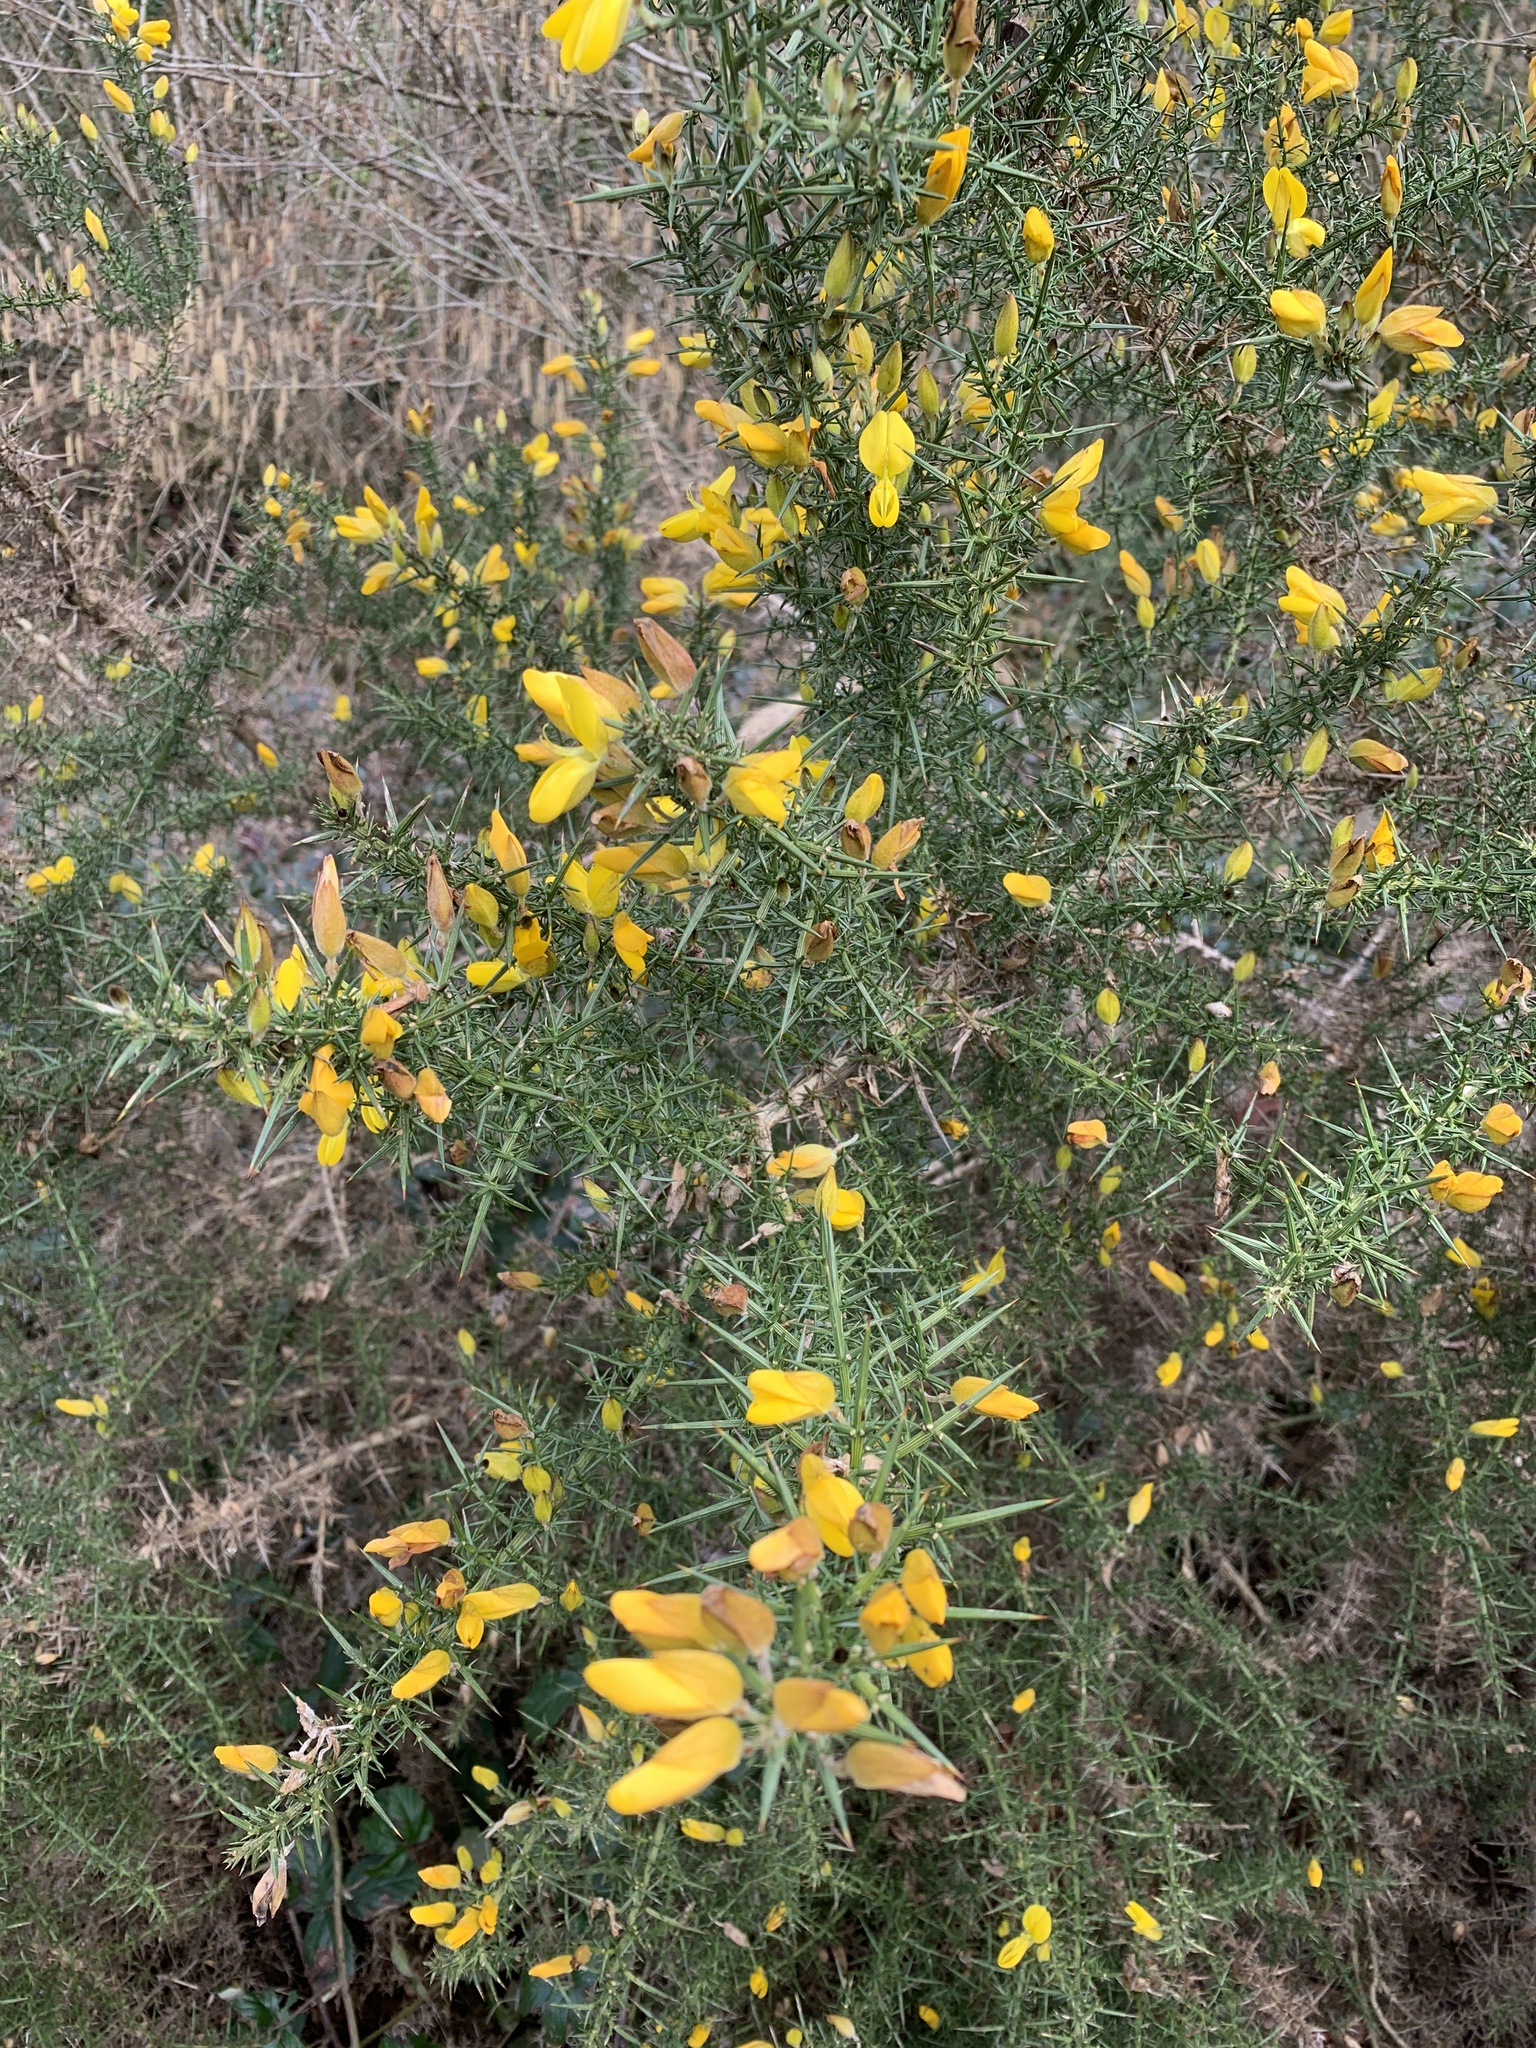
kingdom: Plantae
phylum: Tracheophyta
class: Magnoliopsida
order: Fabales
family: Fabaceae
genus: Ulex
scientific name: Ulex europaeus
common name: Common gorse
